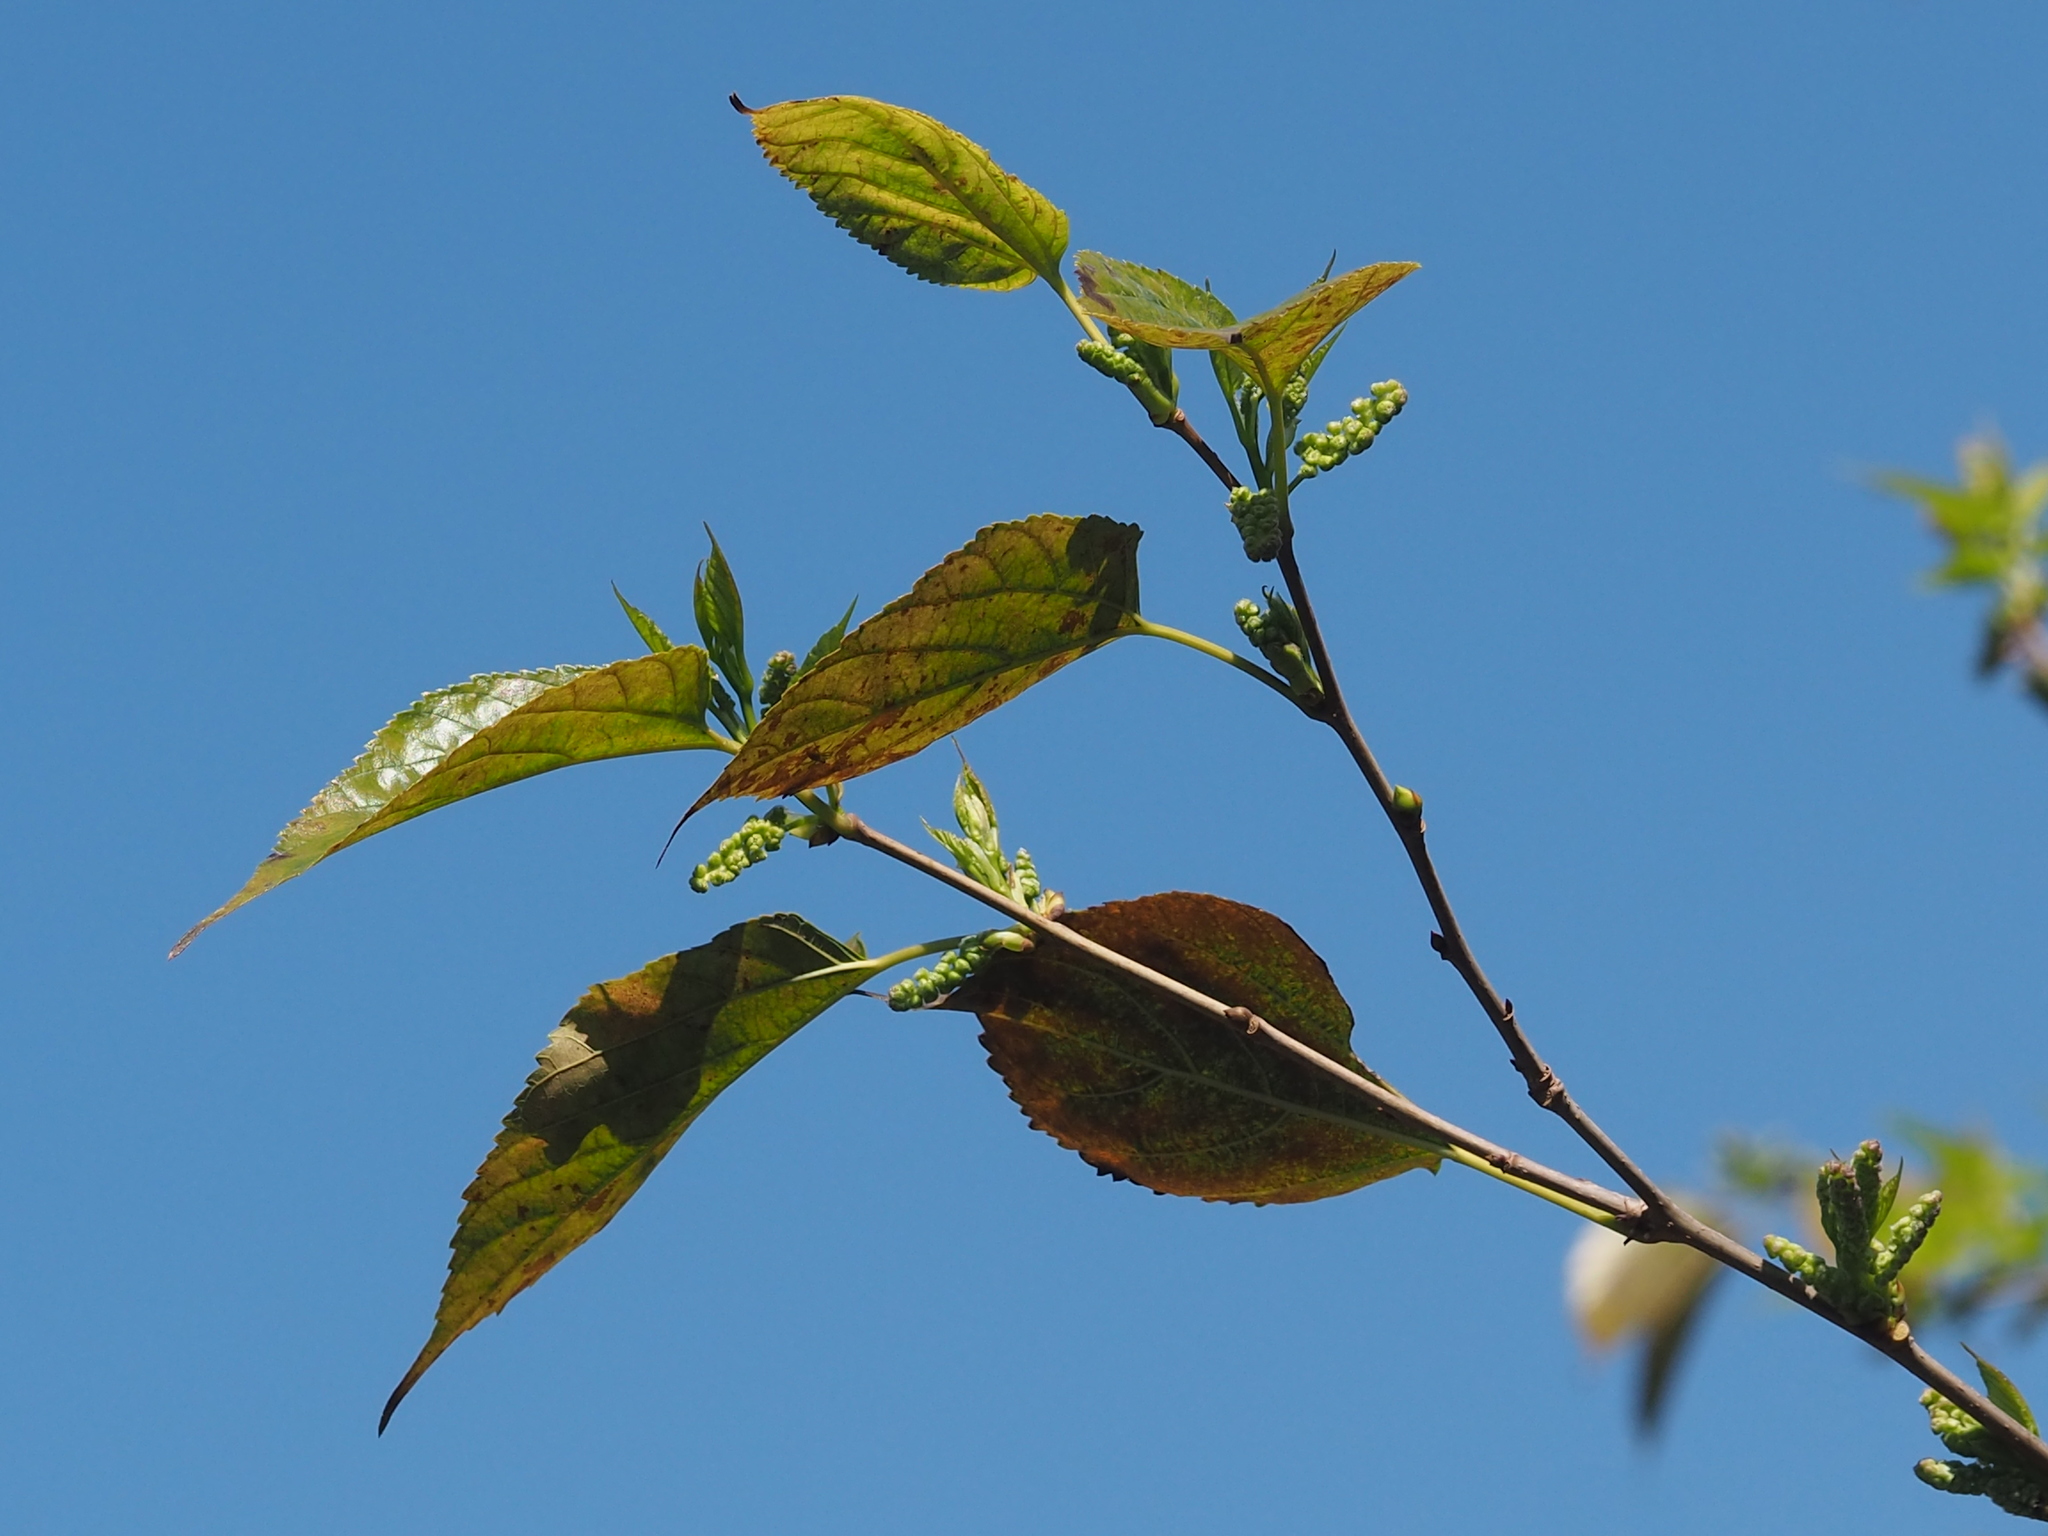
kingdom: Plantae
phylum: Tracheophyta
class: Magnoliopsida
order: Rosales
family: Moraceae
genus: Morus
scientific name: Morus indica
